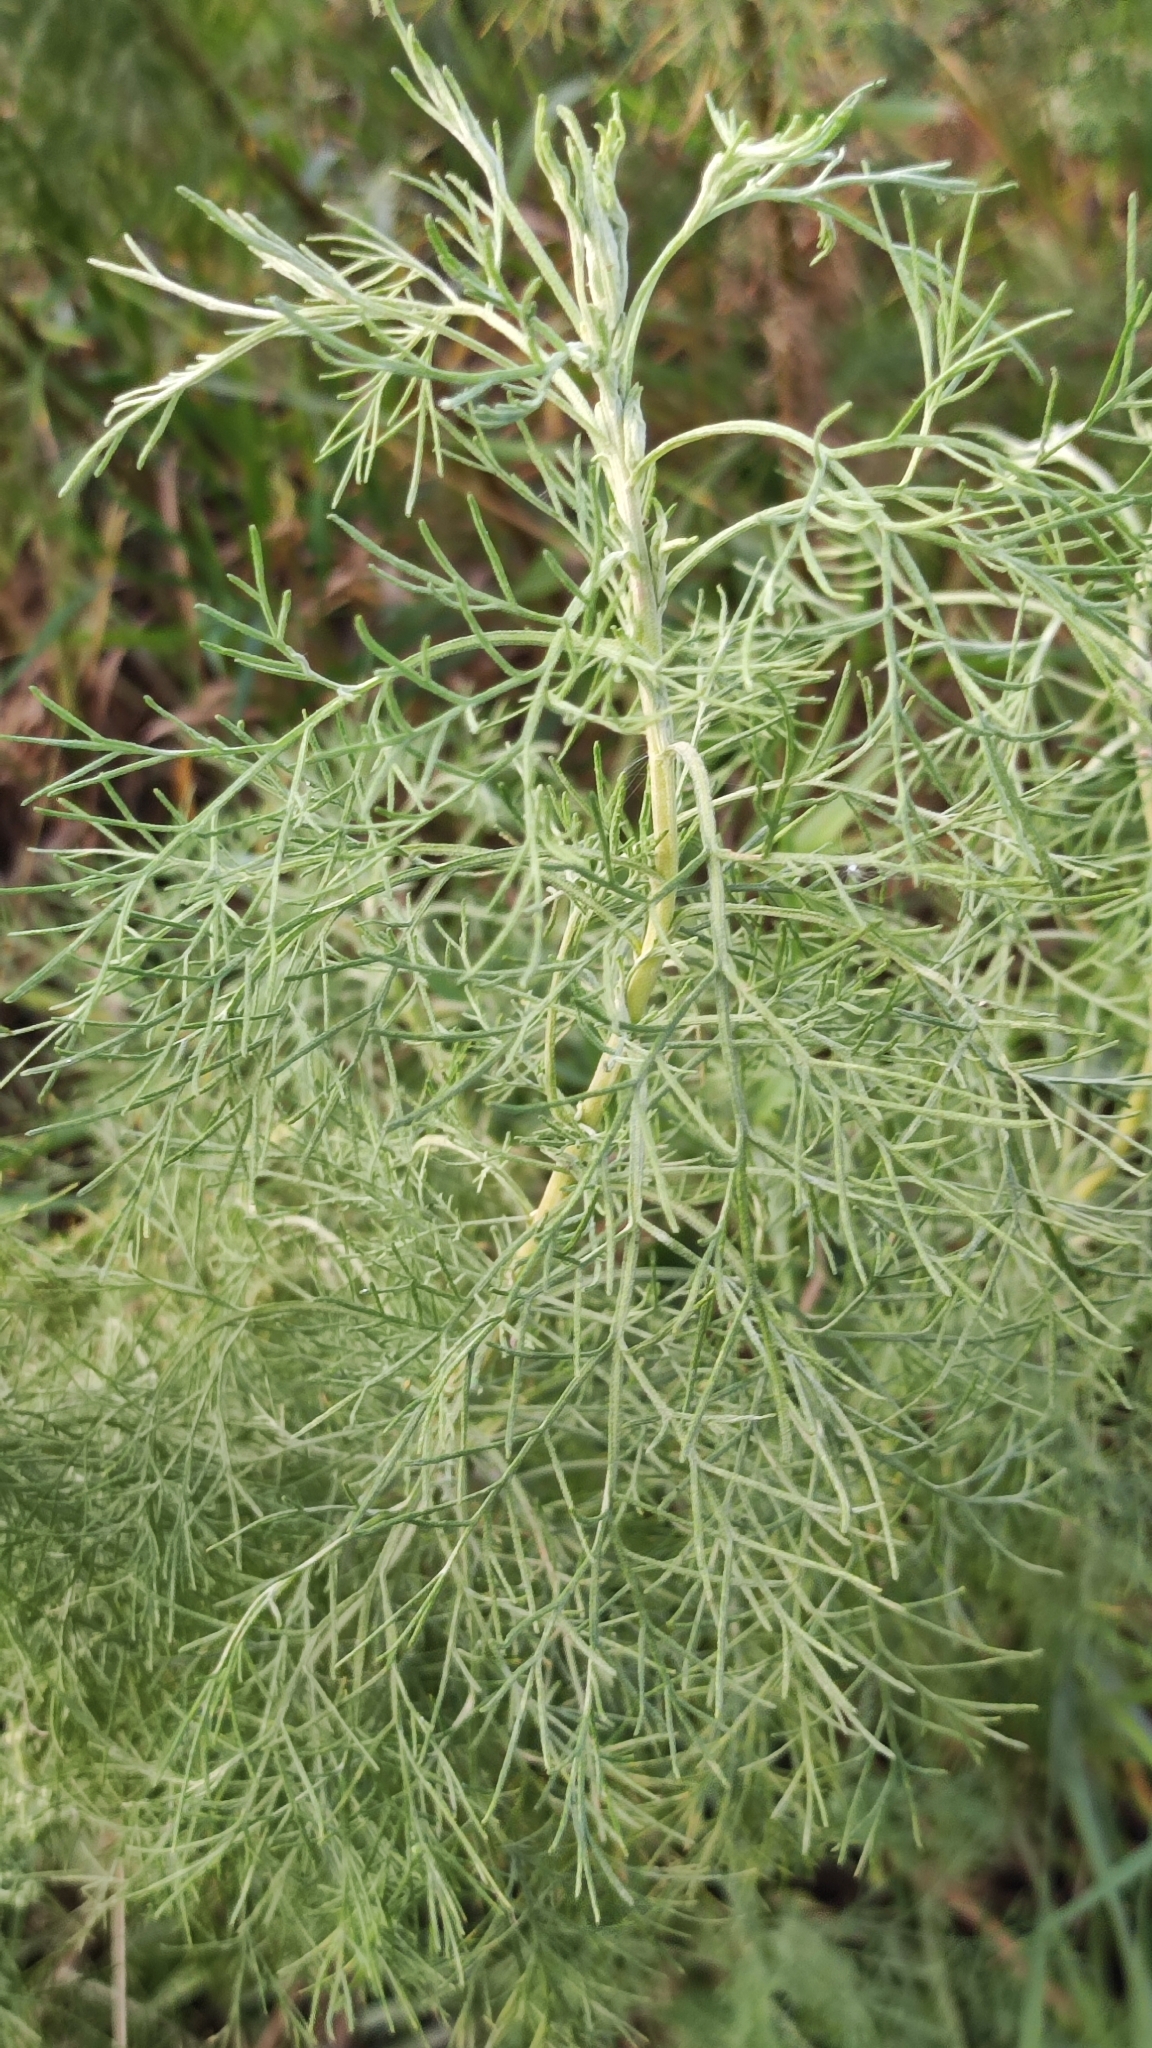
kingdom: Plantae
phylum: Tracheophyta
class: Magnoliopsida
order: Asterales
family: Asteraceae
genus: Artemisia
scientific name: Artemisia abrotanum
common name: Southernwood
